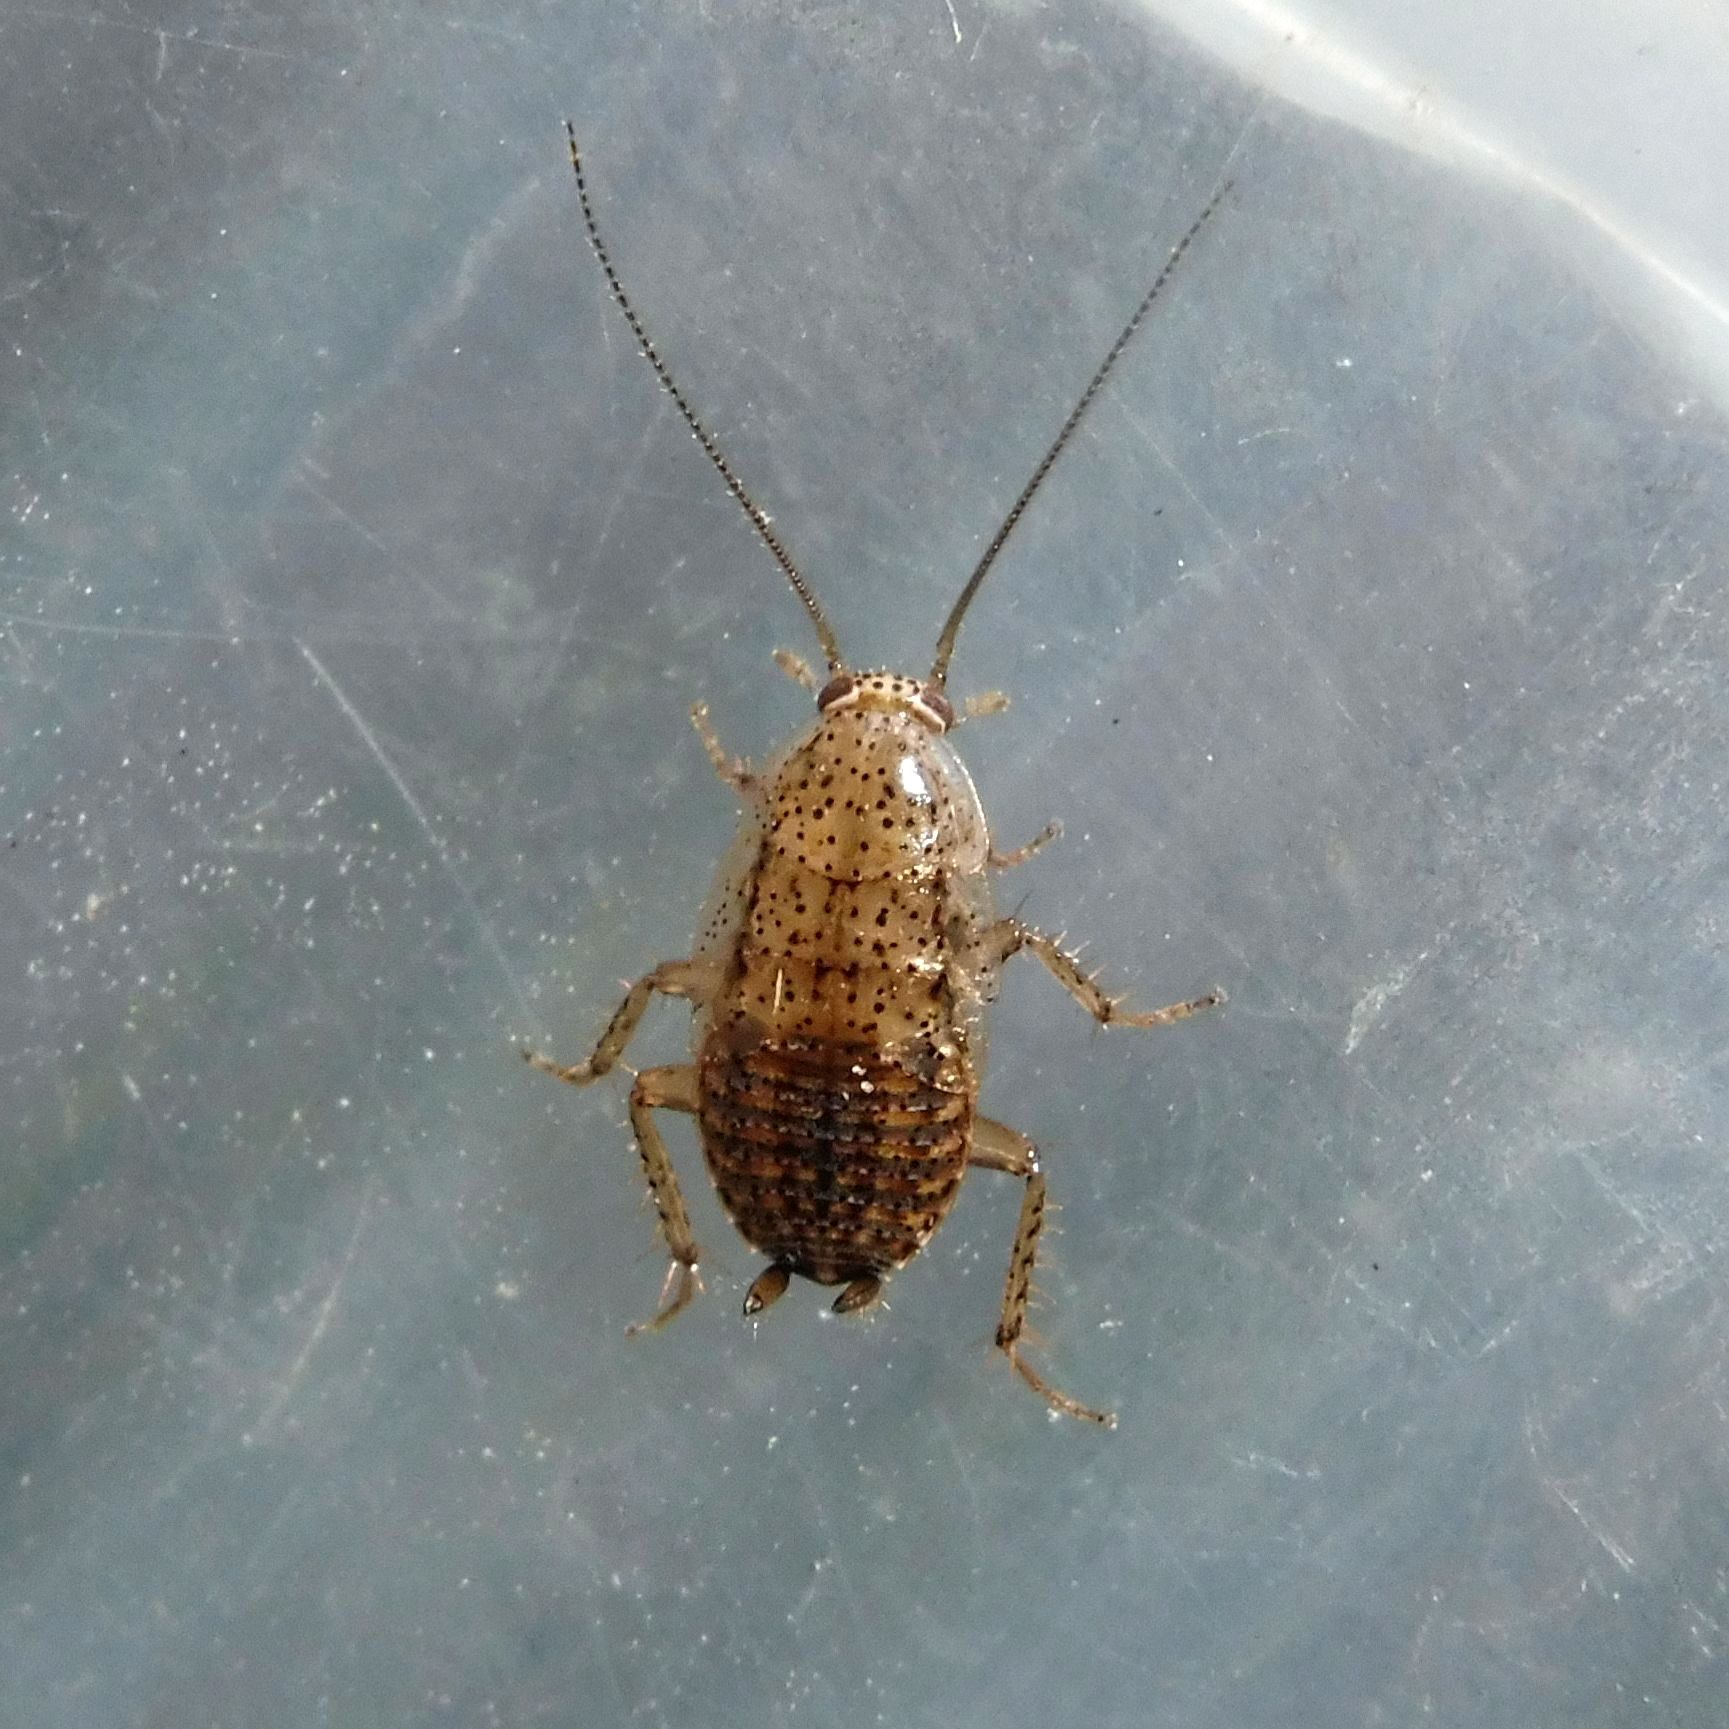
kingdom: Animalia
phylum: Arthropoda
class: Insecta
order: Blattodea
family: Ectobiidae
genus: Ectobius
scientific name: Ectobius pallidus
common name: Tawny cockroach
